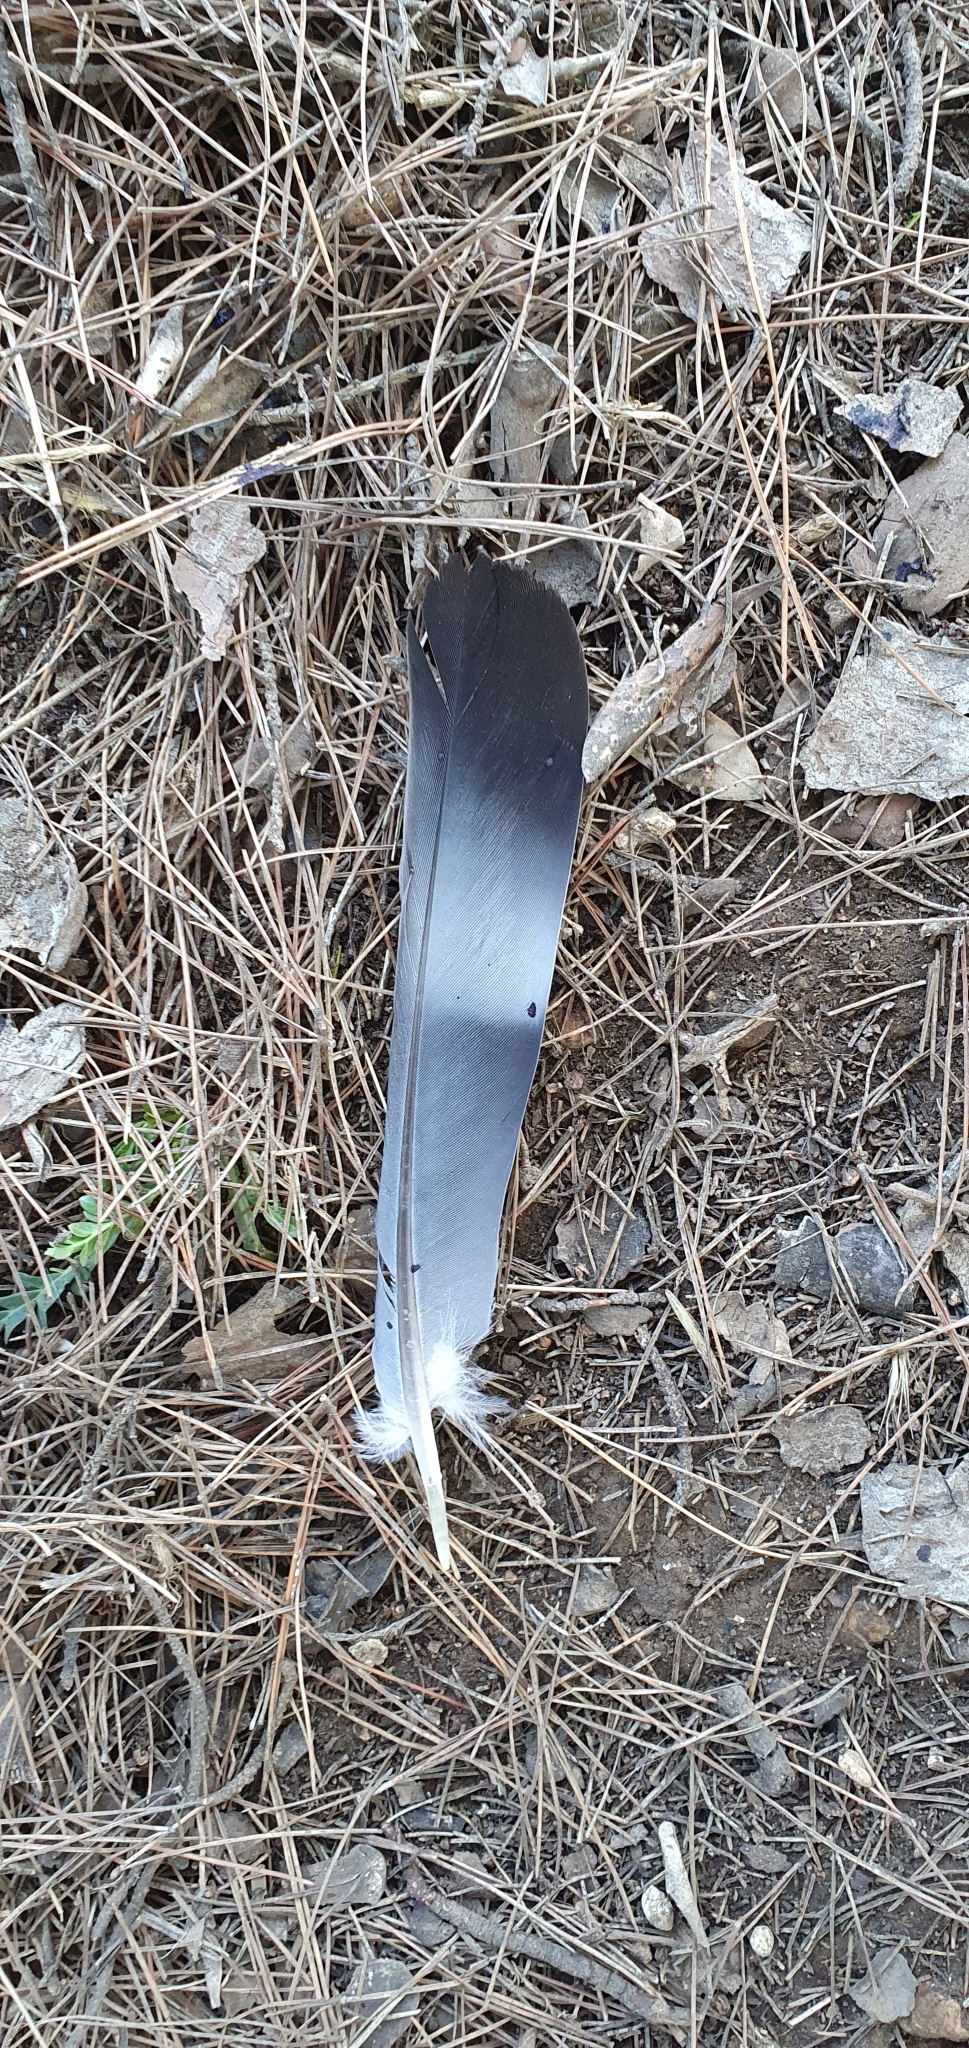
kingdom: Animalia
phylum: Chordata
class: Aves
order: Columbiformes
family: Columbidae
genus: Columba
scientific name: Columba palumbus
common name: Common wood pigeon
